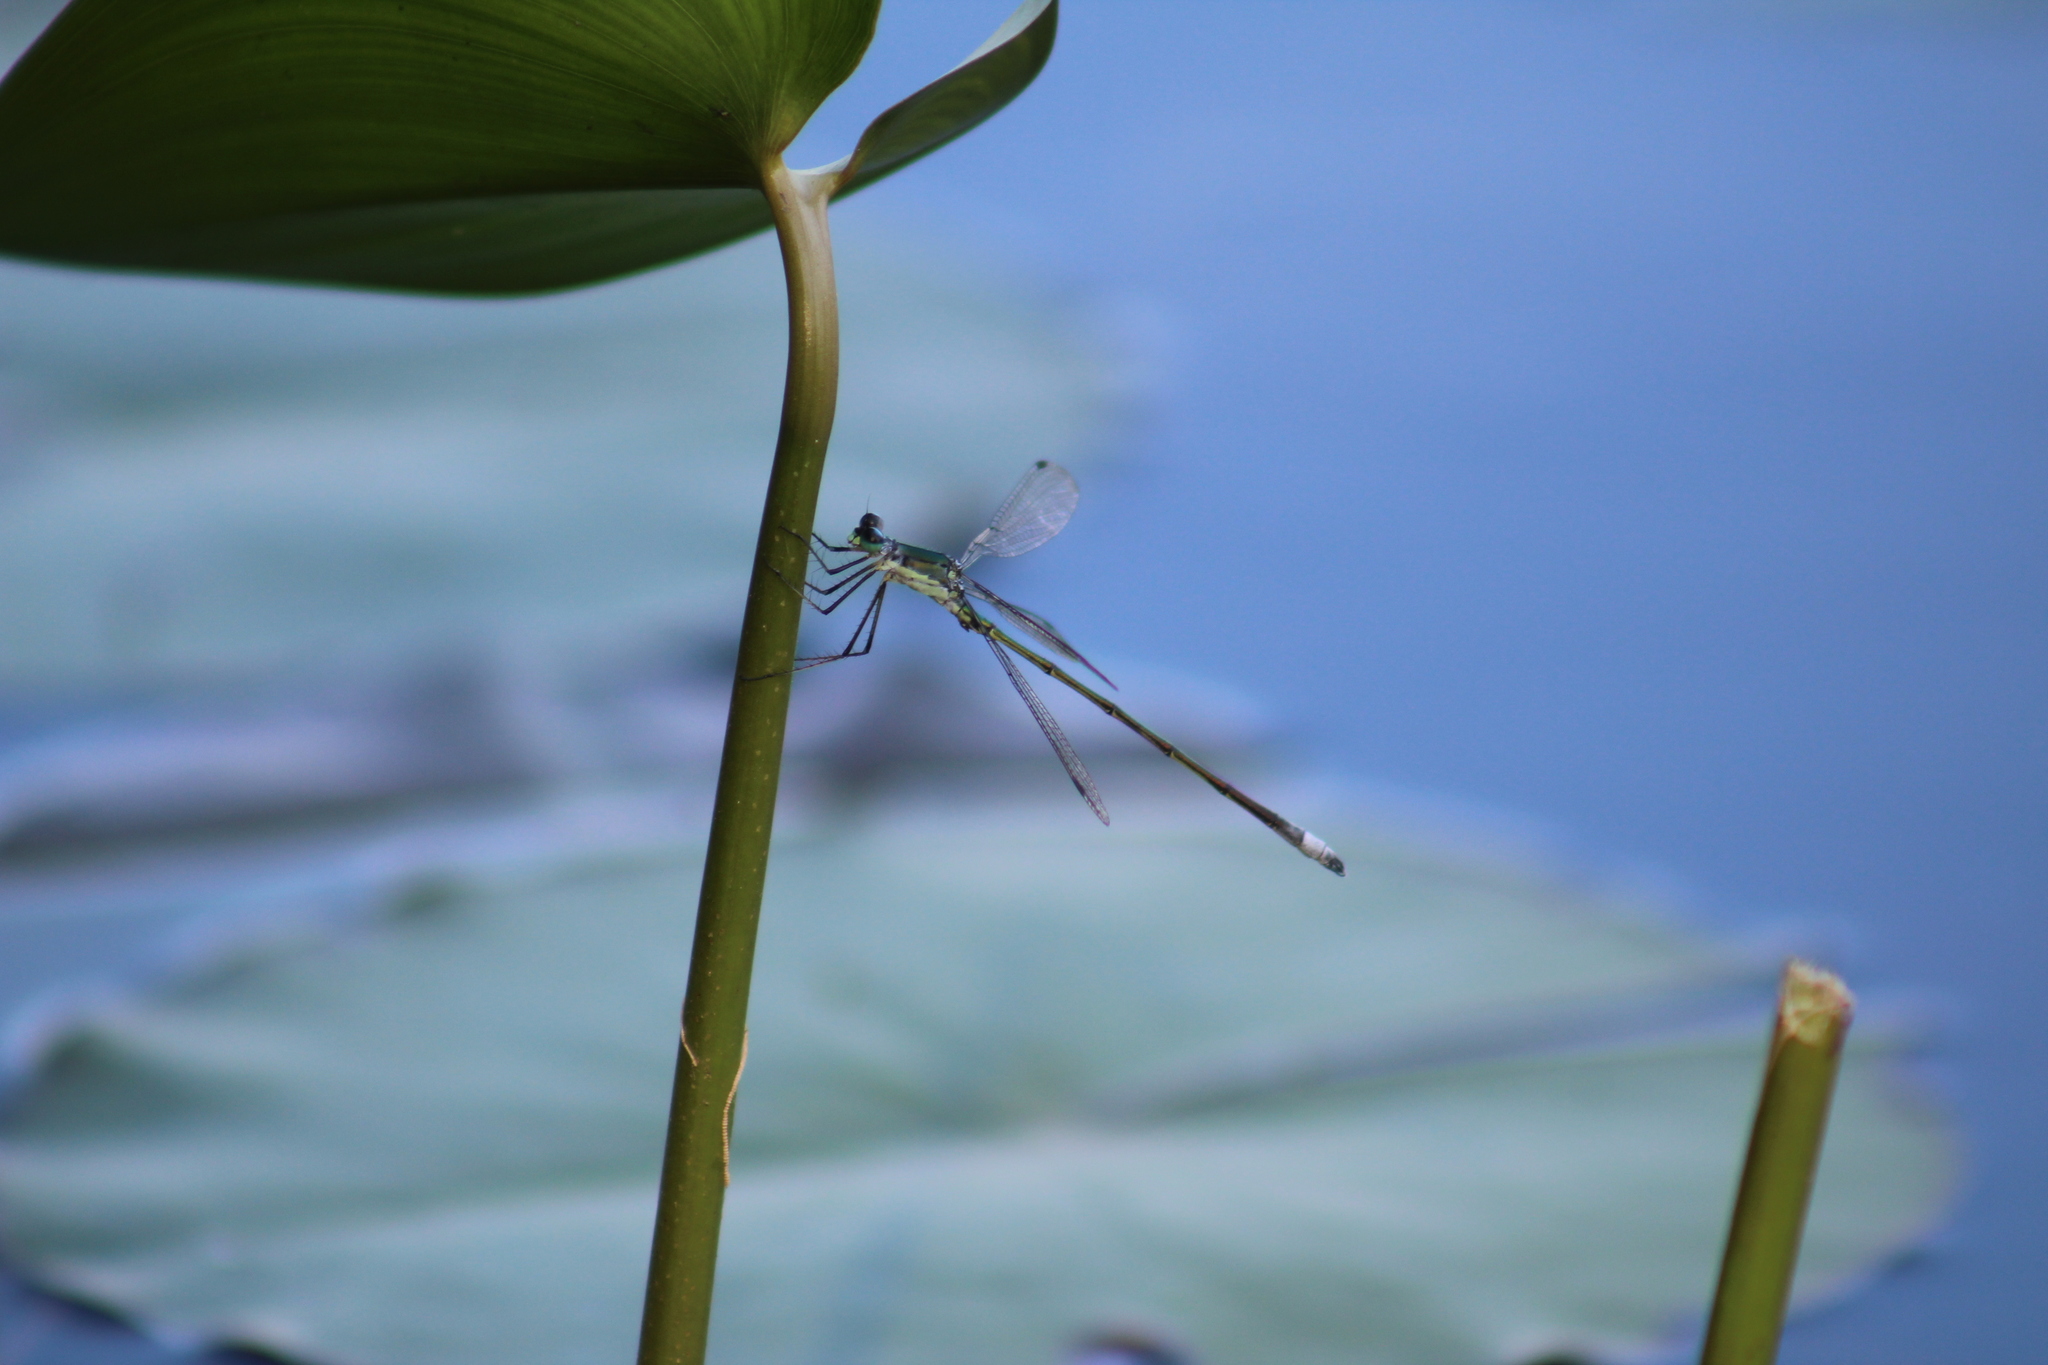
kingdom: Animalia
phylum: Arthropoda
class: Insecta
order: Odonata
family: Lestidae
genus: Lestes
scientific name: Lestes inaequalis
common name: Elegant spreadwing
